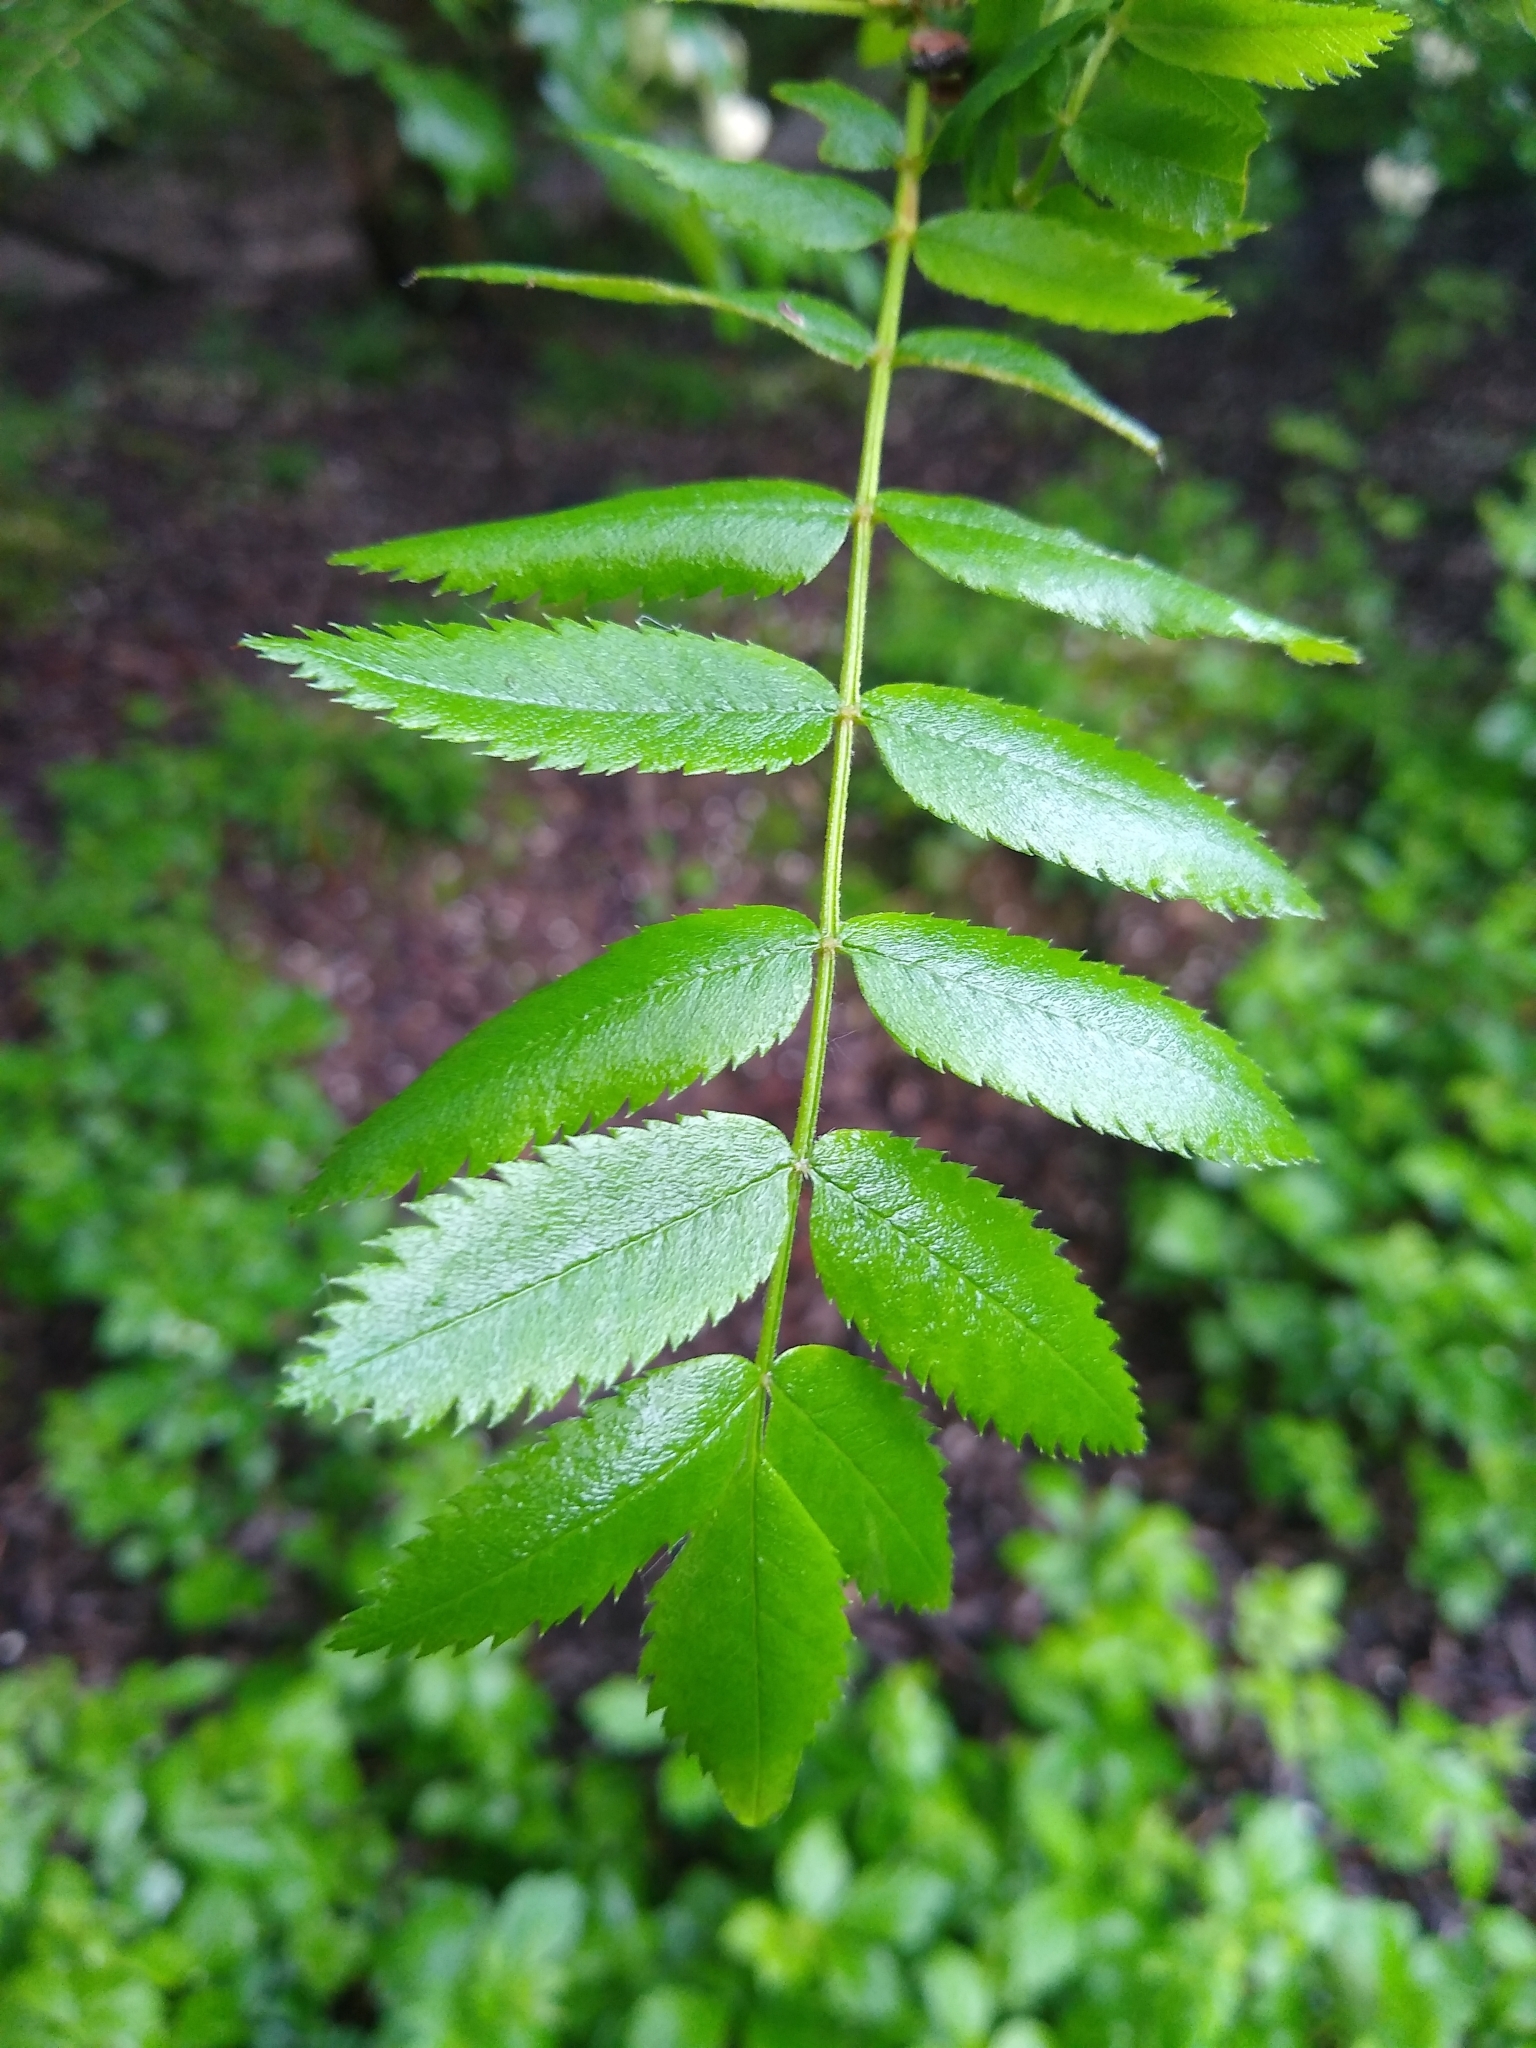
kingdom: Plantae
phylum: Tracheophyta
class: Magnoliopsida
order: Rosales
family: Rosaceae
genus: Sorbus
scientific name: Sorbus aucuparia
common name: Rowan
